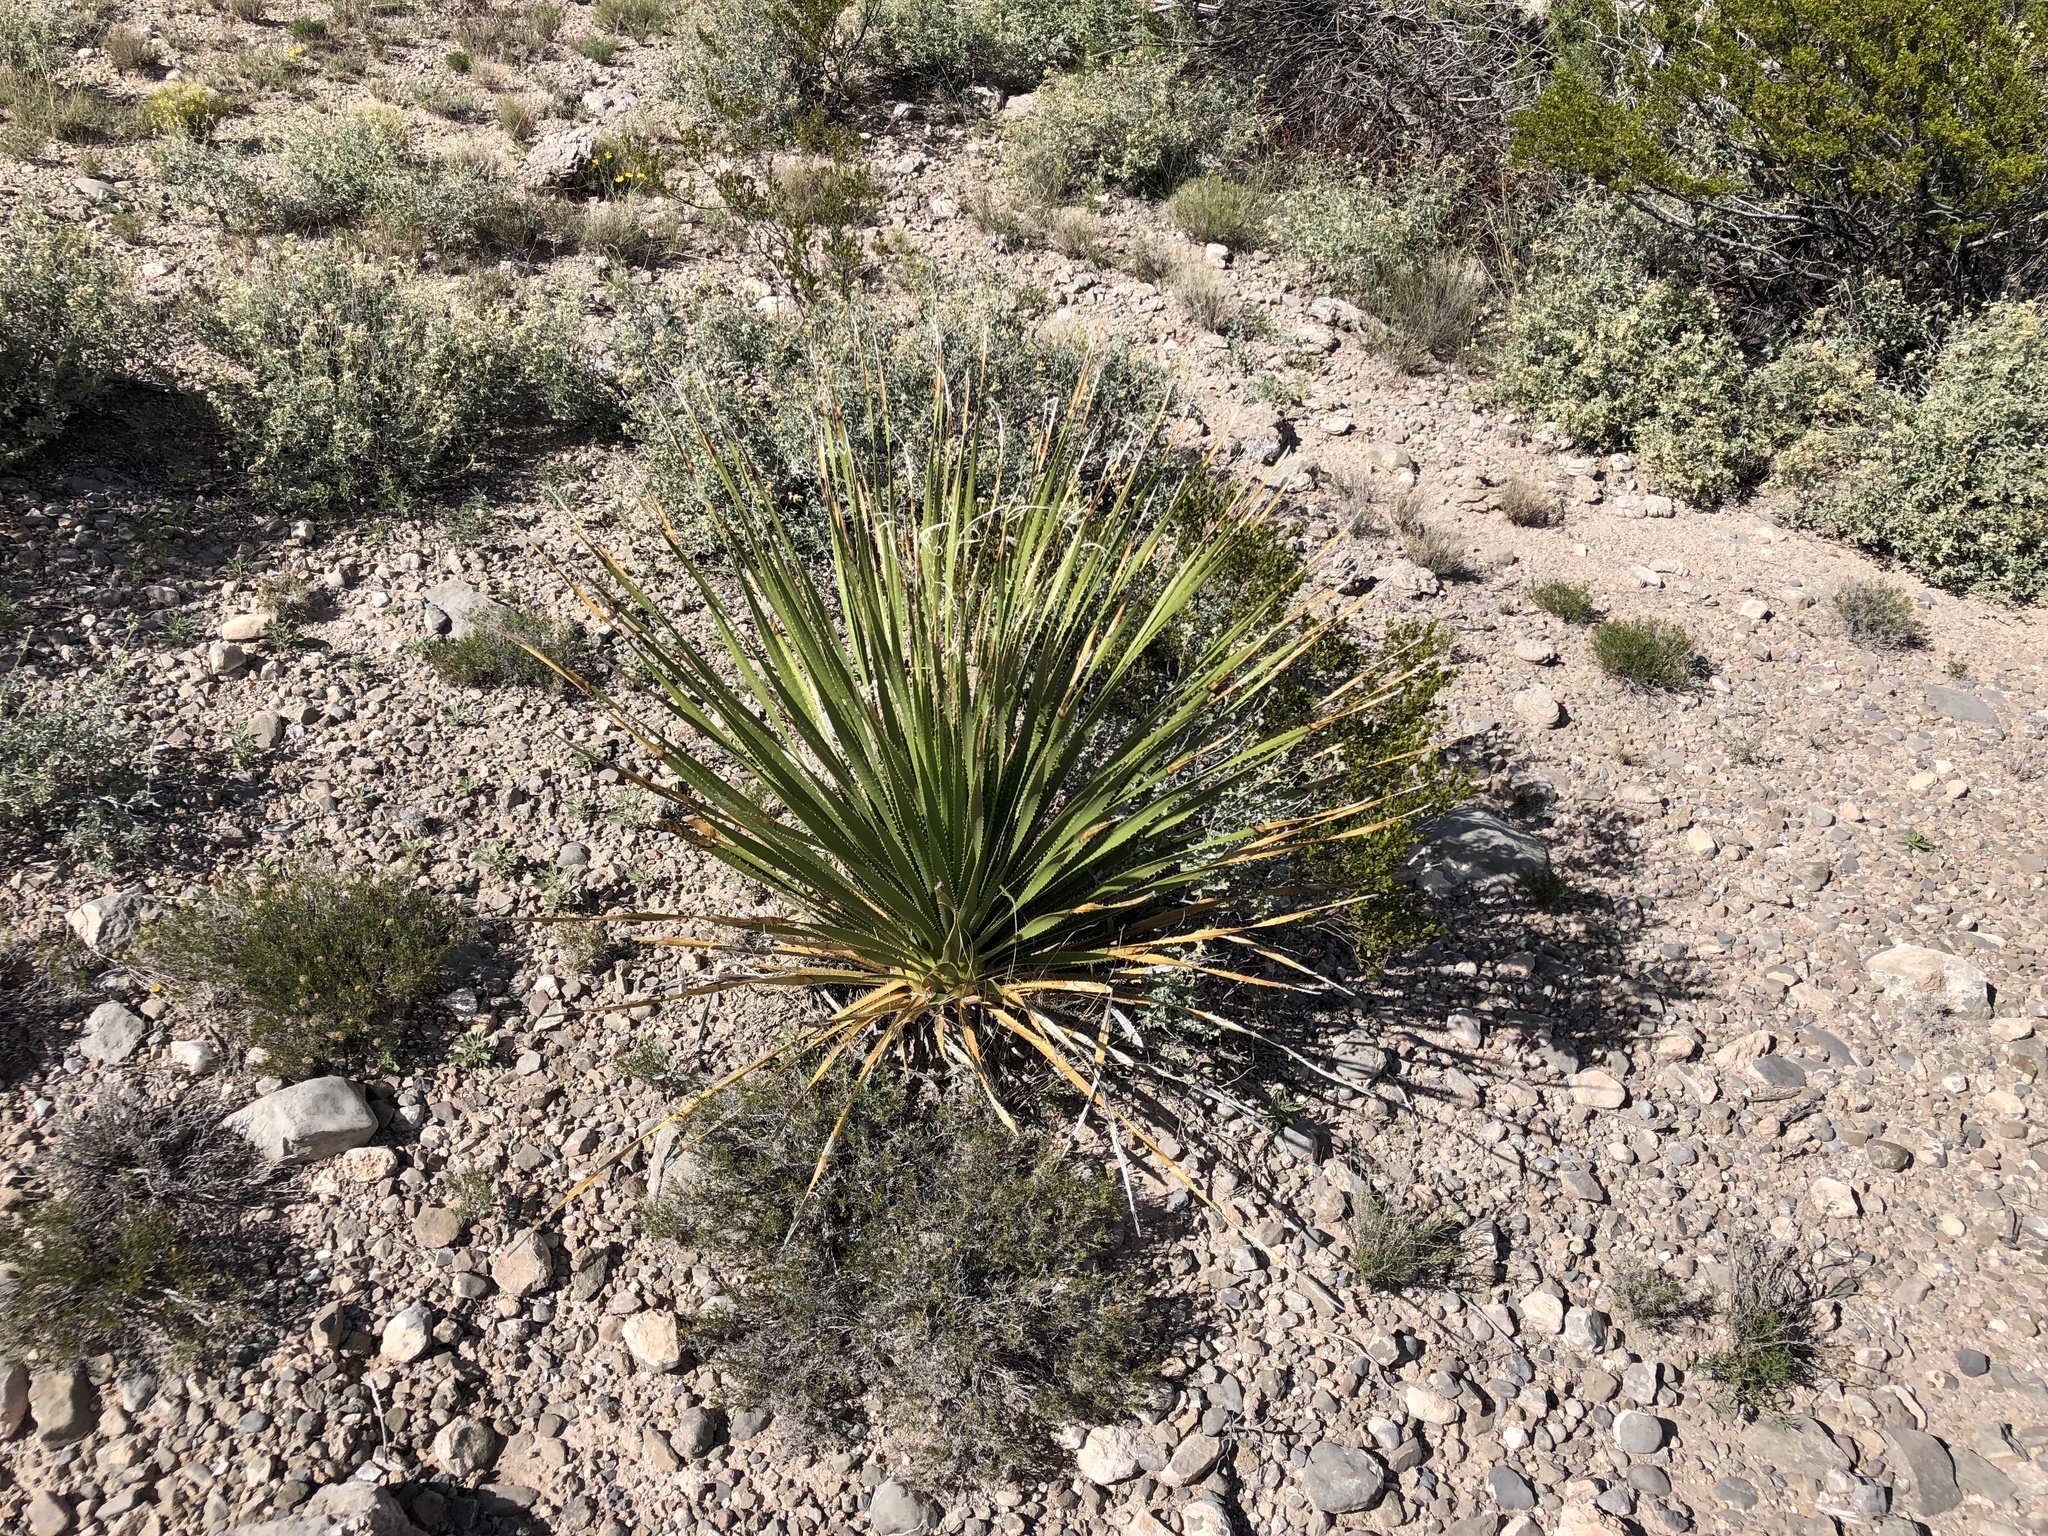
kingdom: Plantae
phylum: Tracheophyta
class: Liliopsida
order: Asparagales
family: Asparagaceae
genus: Dasylirion
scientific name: Dasylirion wheeleri
